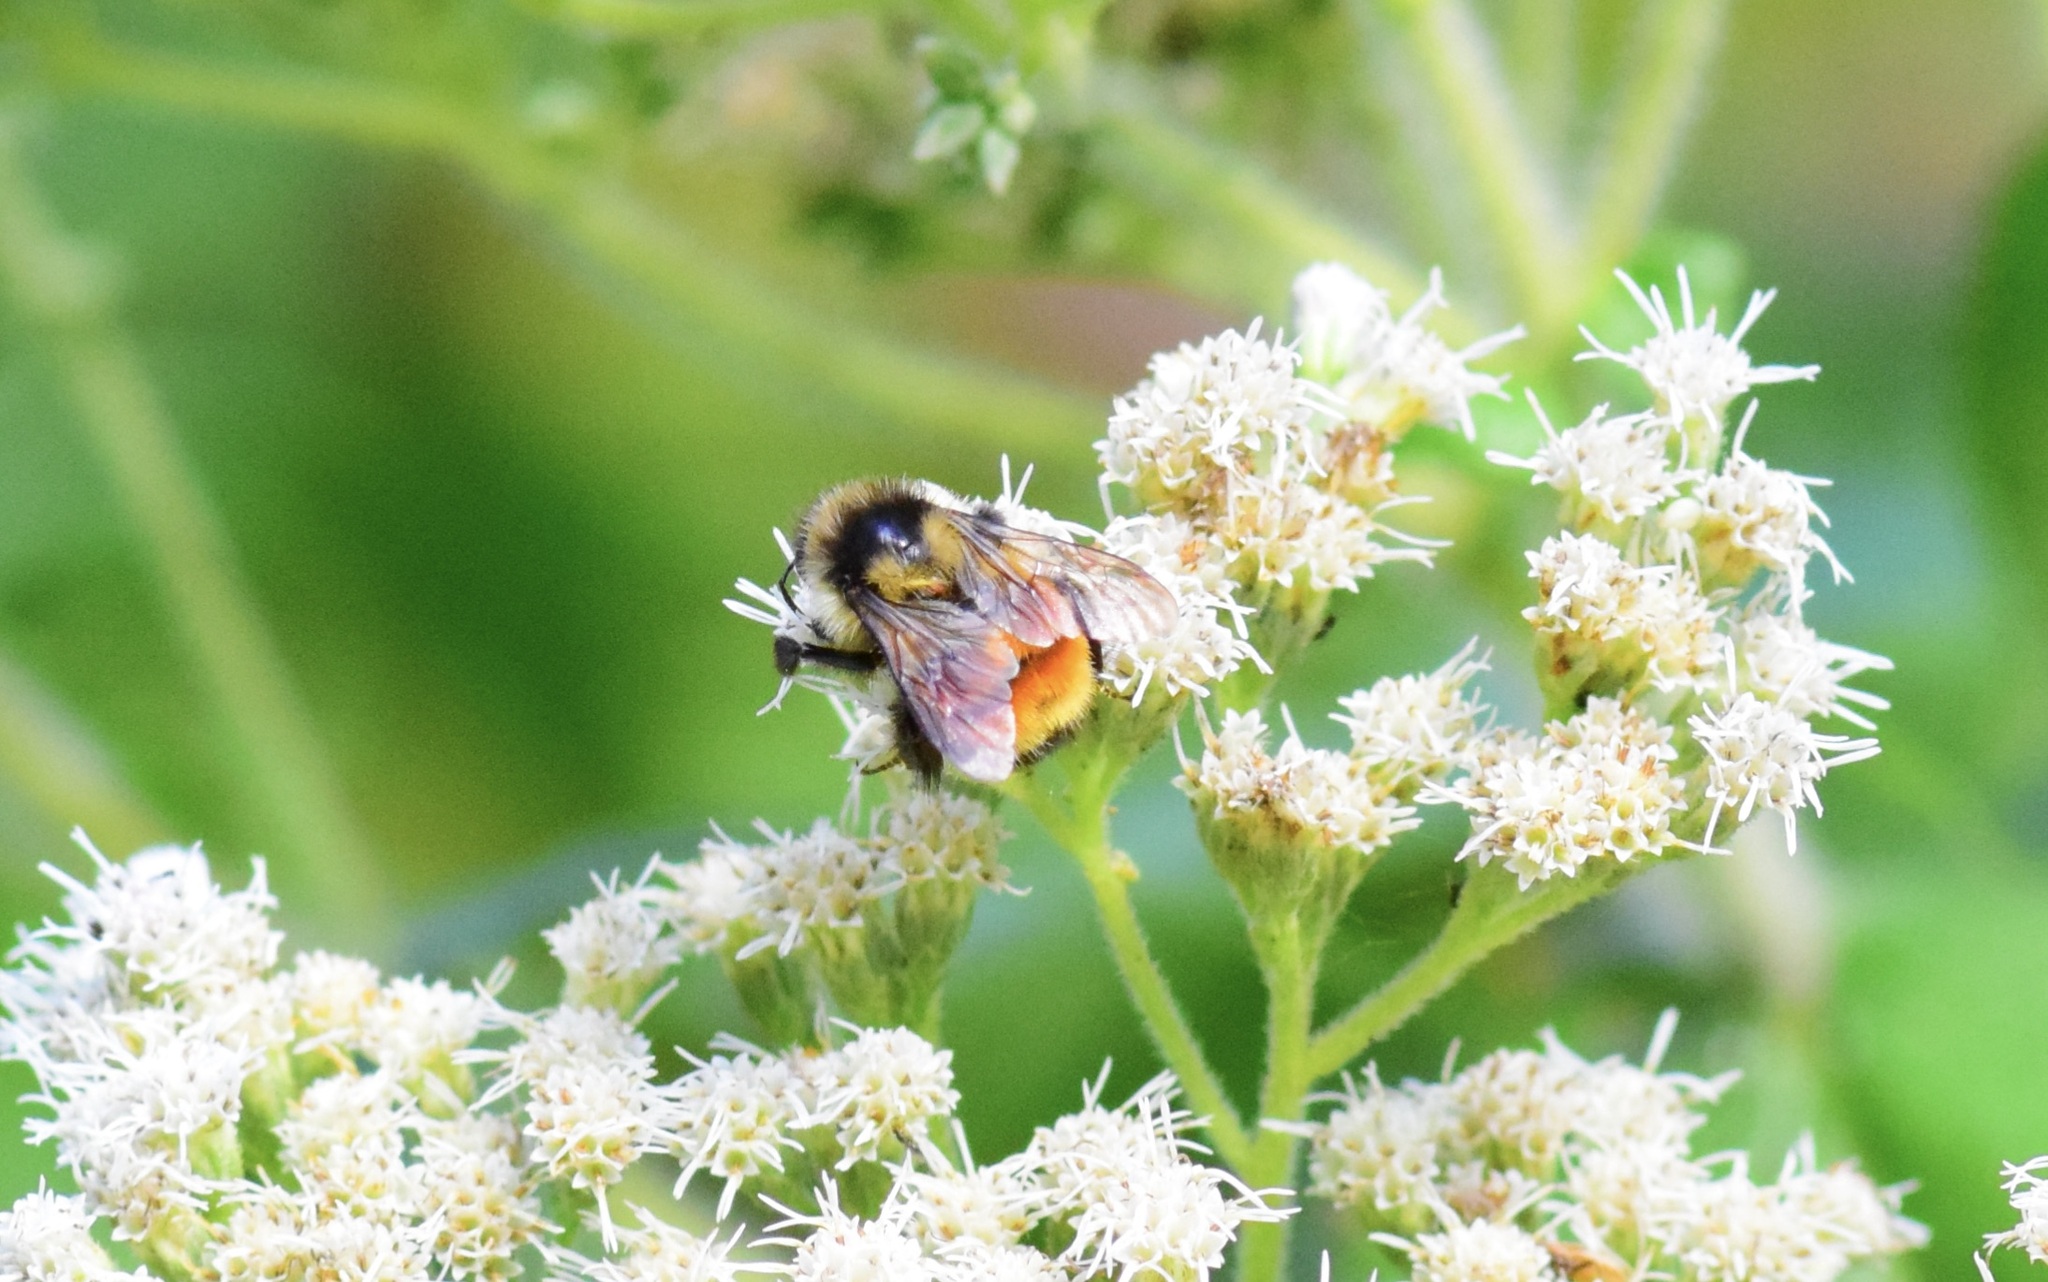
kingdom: Animalia
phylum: Arthropoda
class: Insecta
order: Hymenoptera
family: Apidae
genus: Bombus
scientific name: Bombus ternarius
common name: Tri-colored bumble bee
